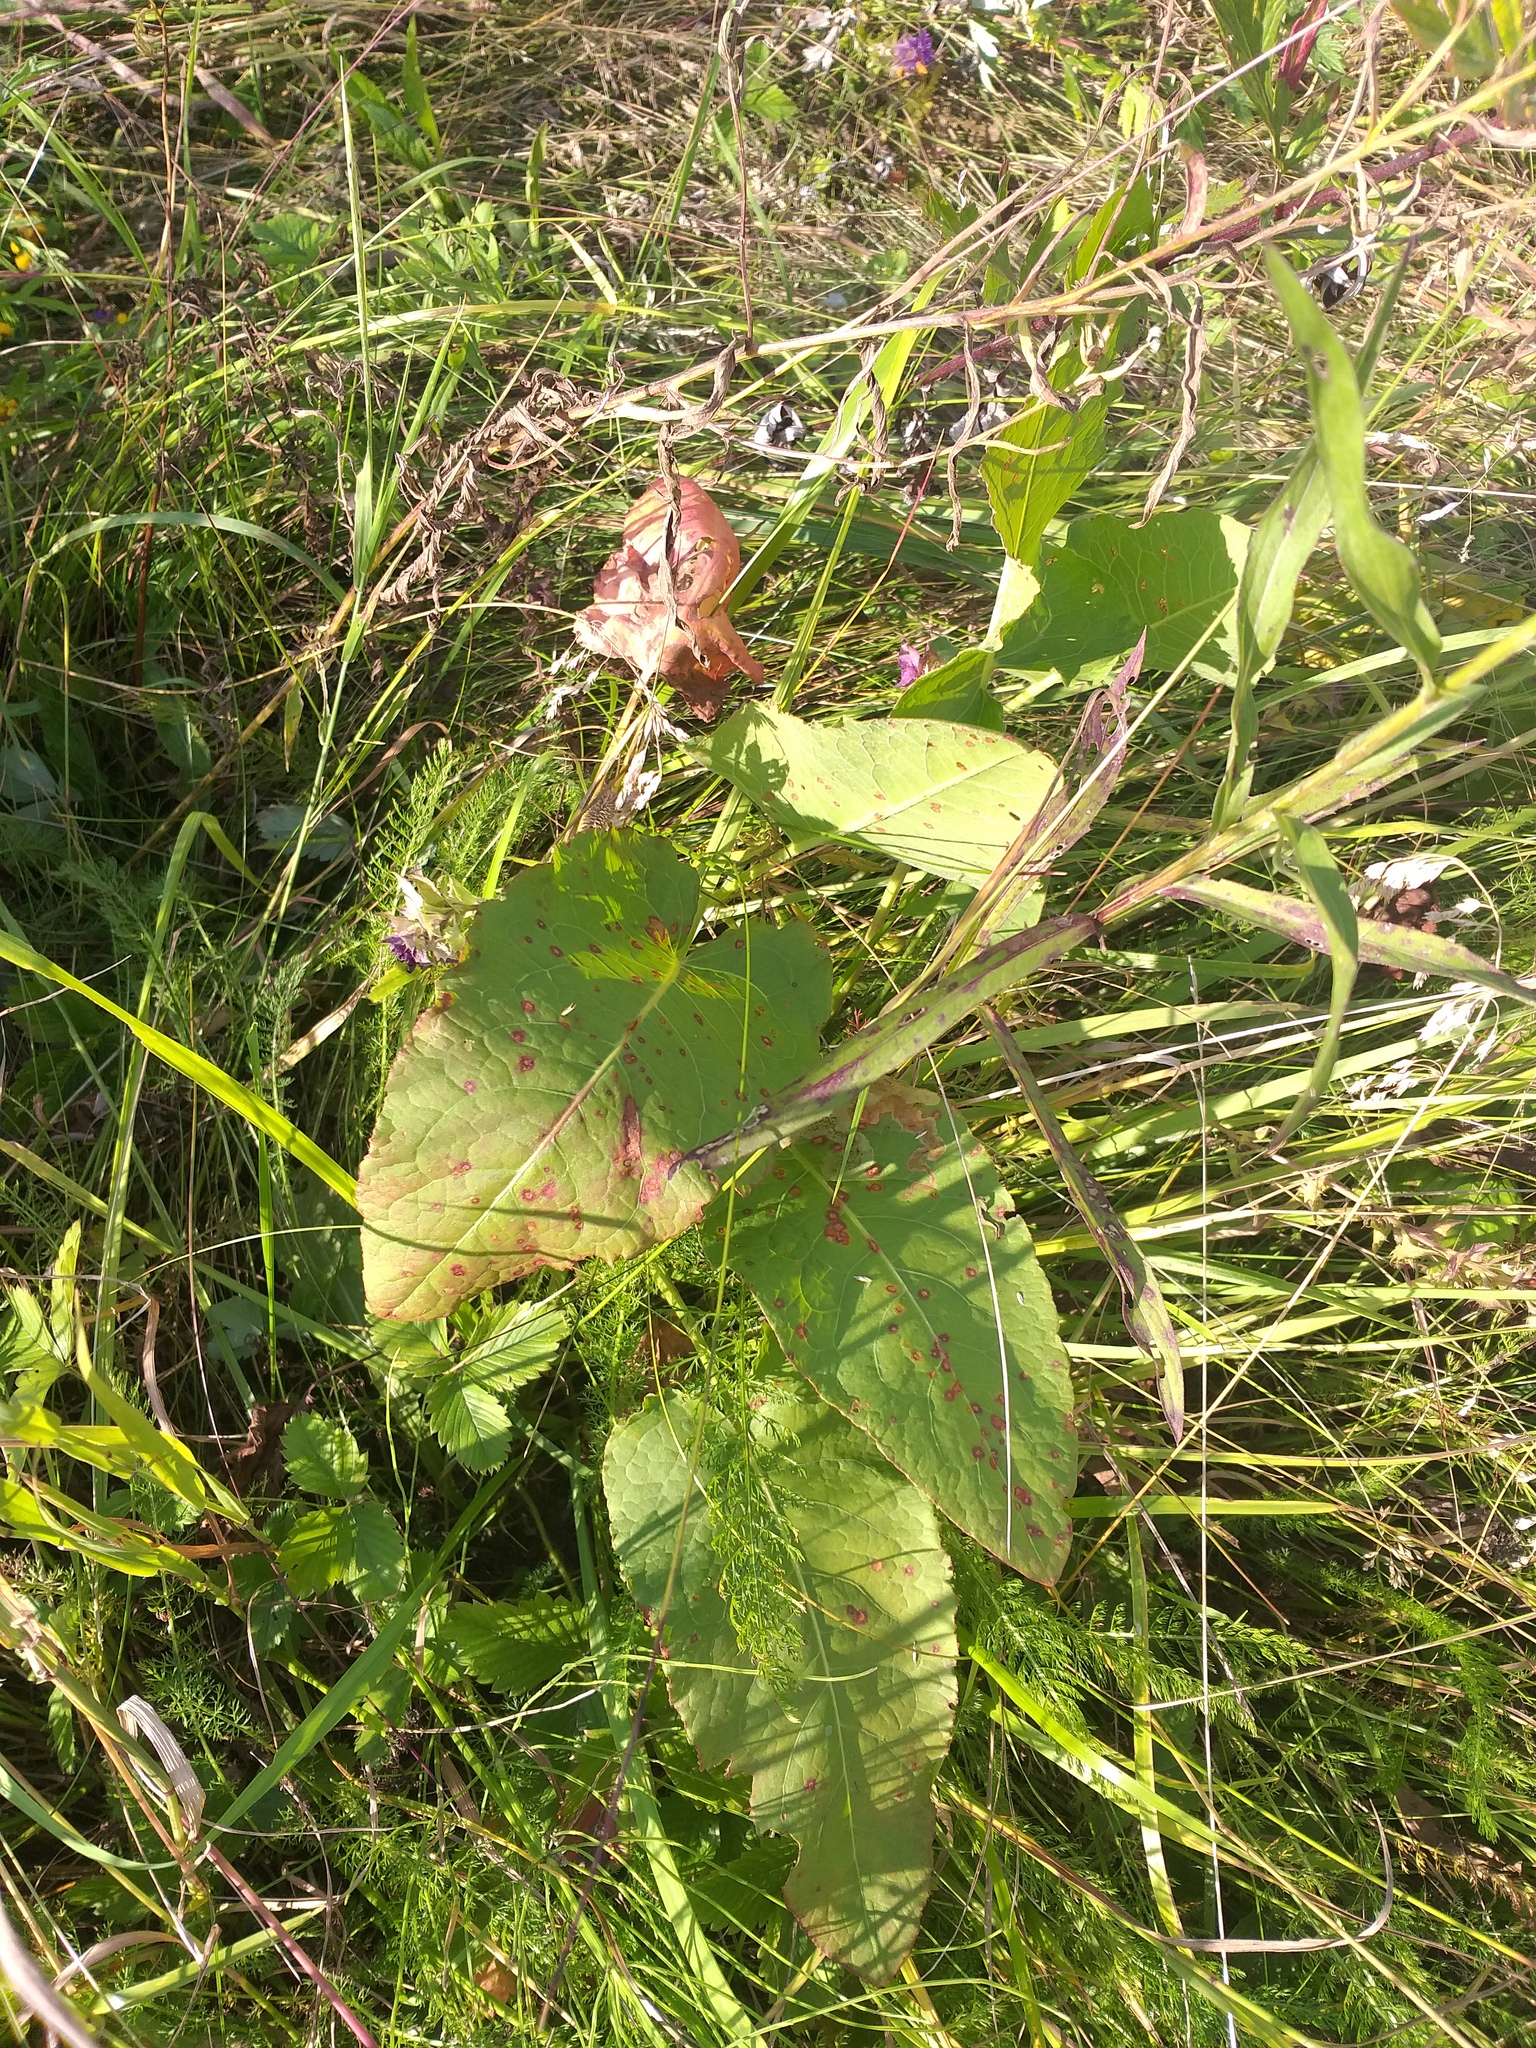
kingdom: Plantae
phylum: Tracheophyta
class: Magnoliopsida
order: Caryophyllales
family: Polygonaceae
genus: Rumex
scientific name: Rumex confertus
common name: Russian dock
